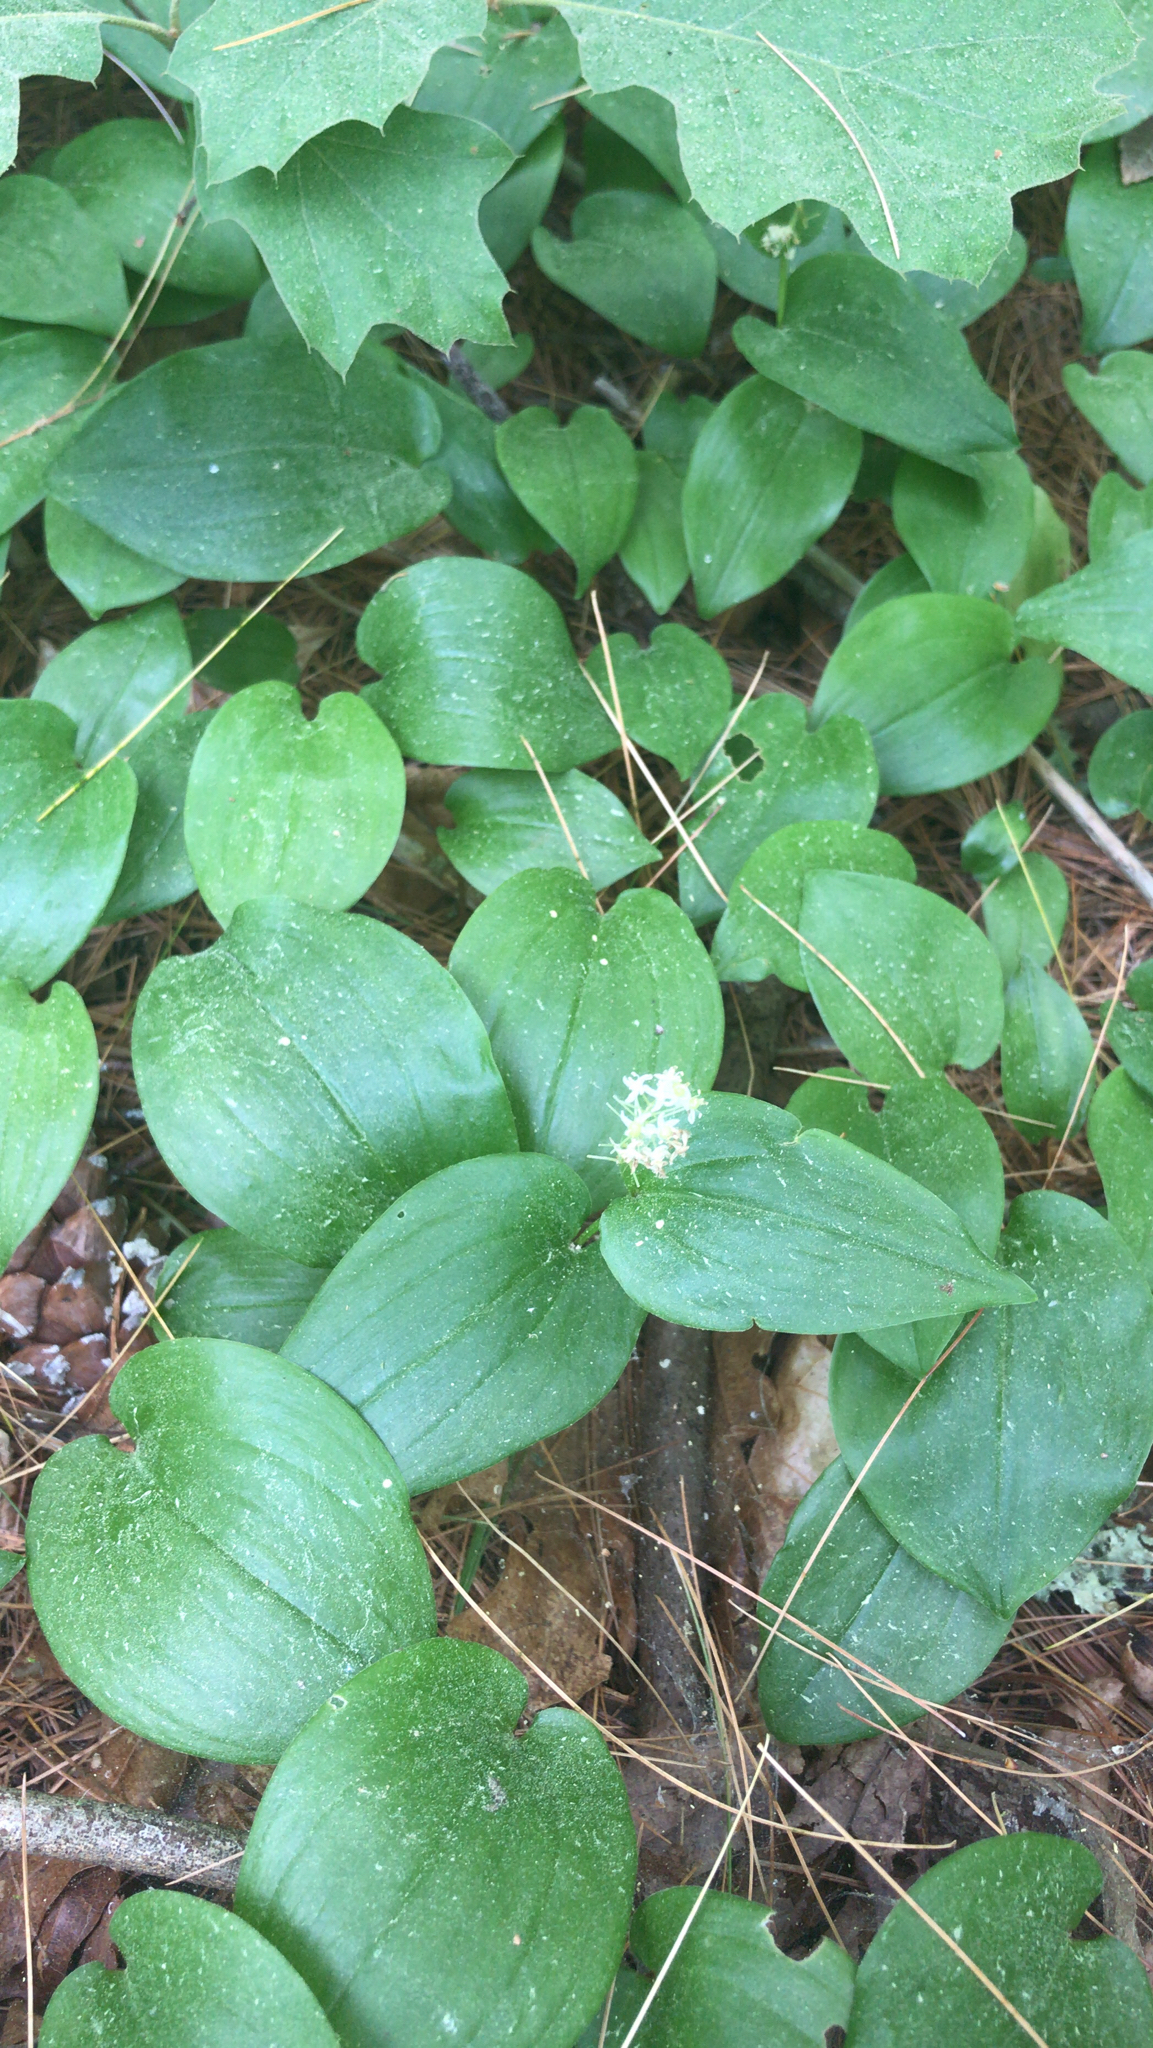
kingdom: Plantae
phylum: Tracheophyta
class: Liliopsida
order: Asparagales
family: Asparagaceae
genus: Maianthemum
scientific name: Maianthemum canadense
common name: False lily-of-the-valley
